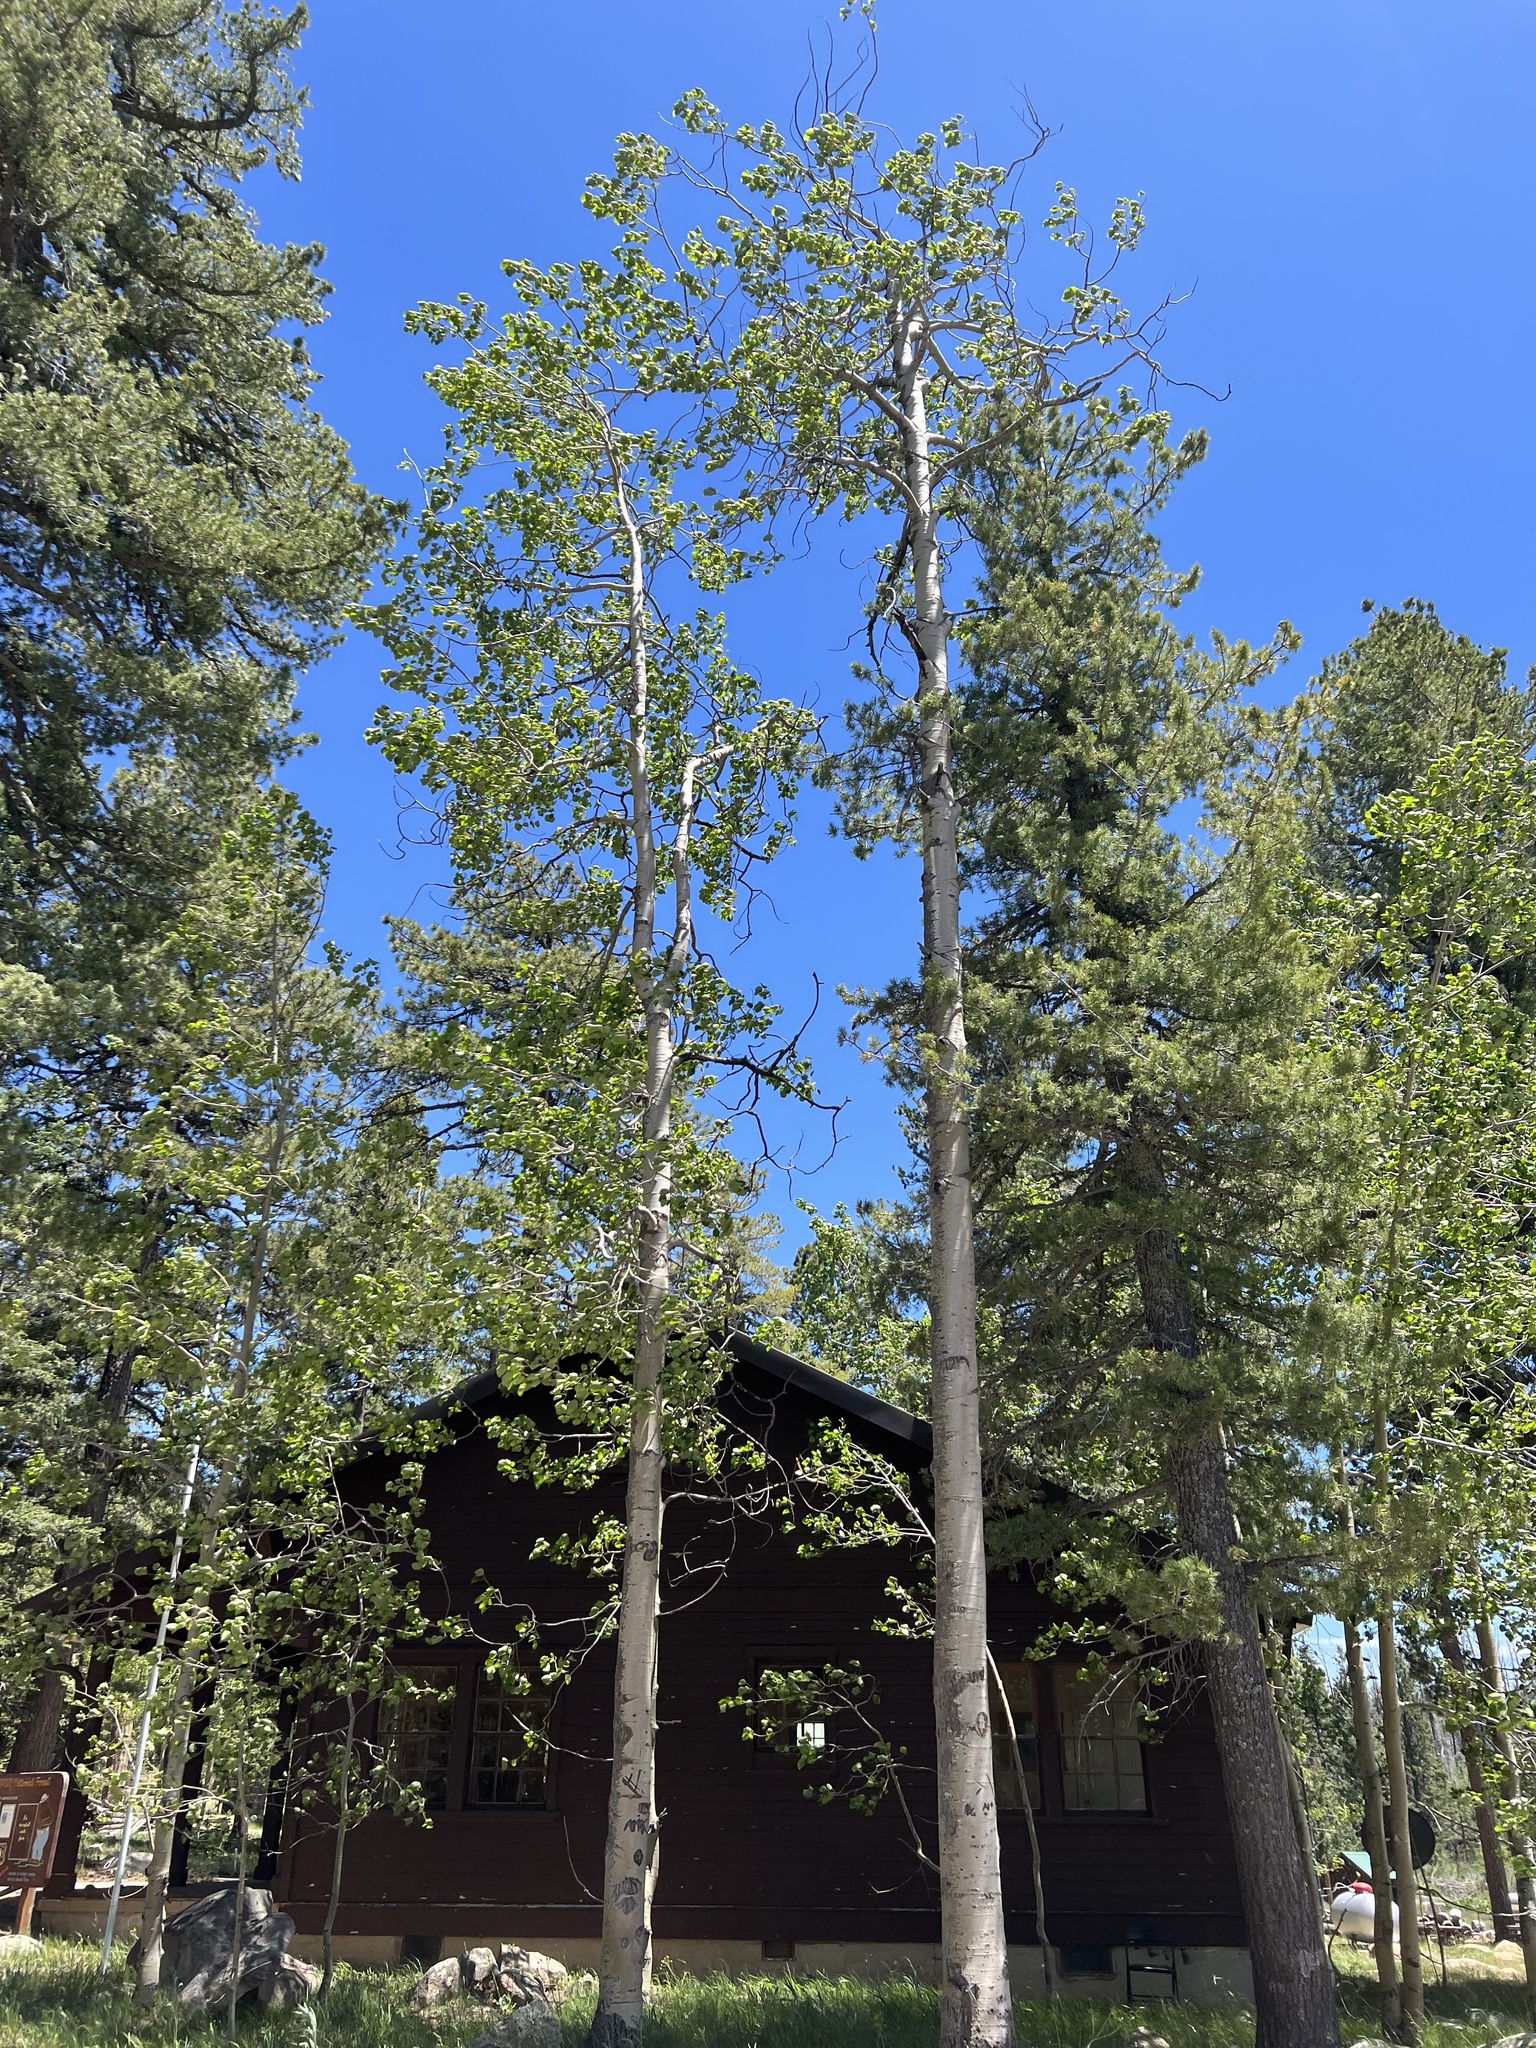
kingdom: Plantae
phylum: Tracheophyta
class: Magnoliopsida
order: Malpighiales
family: Salicaceae
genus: Populus
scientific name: Populus tremuloides
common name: Quaking aspen
